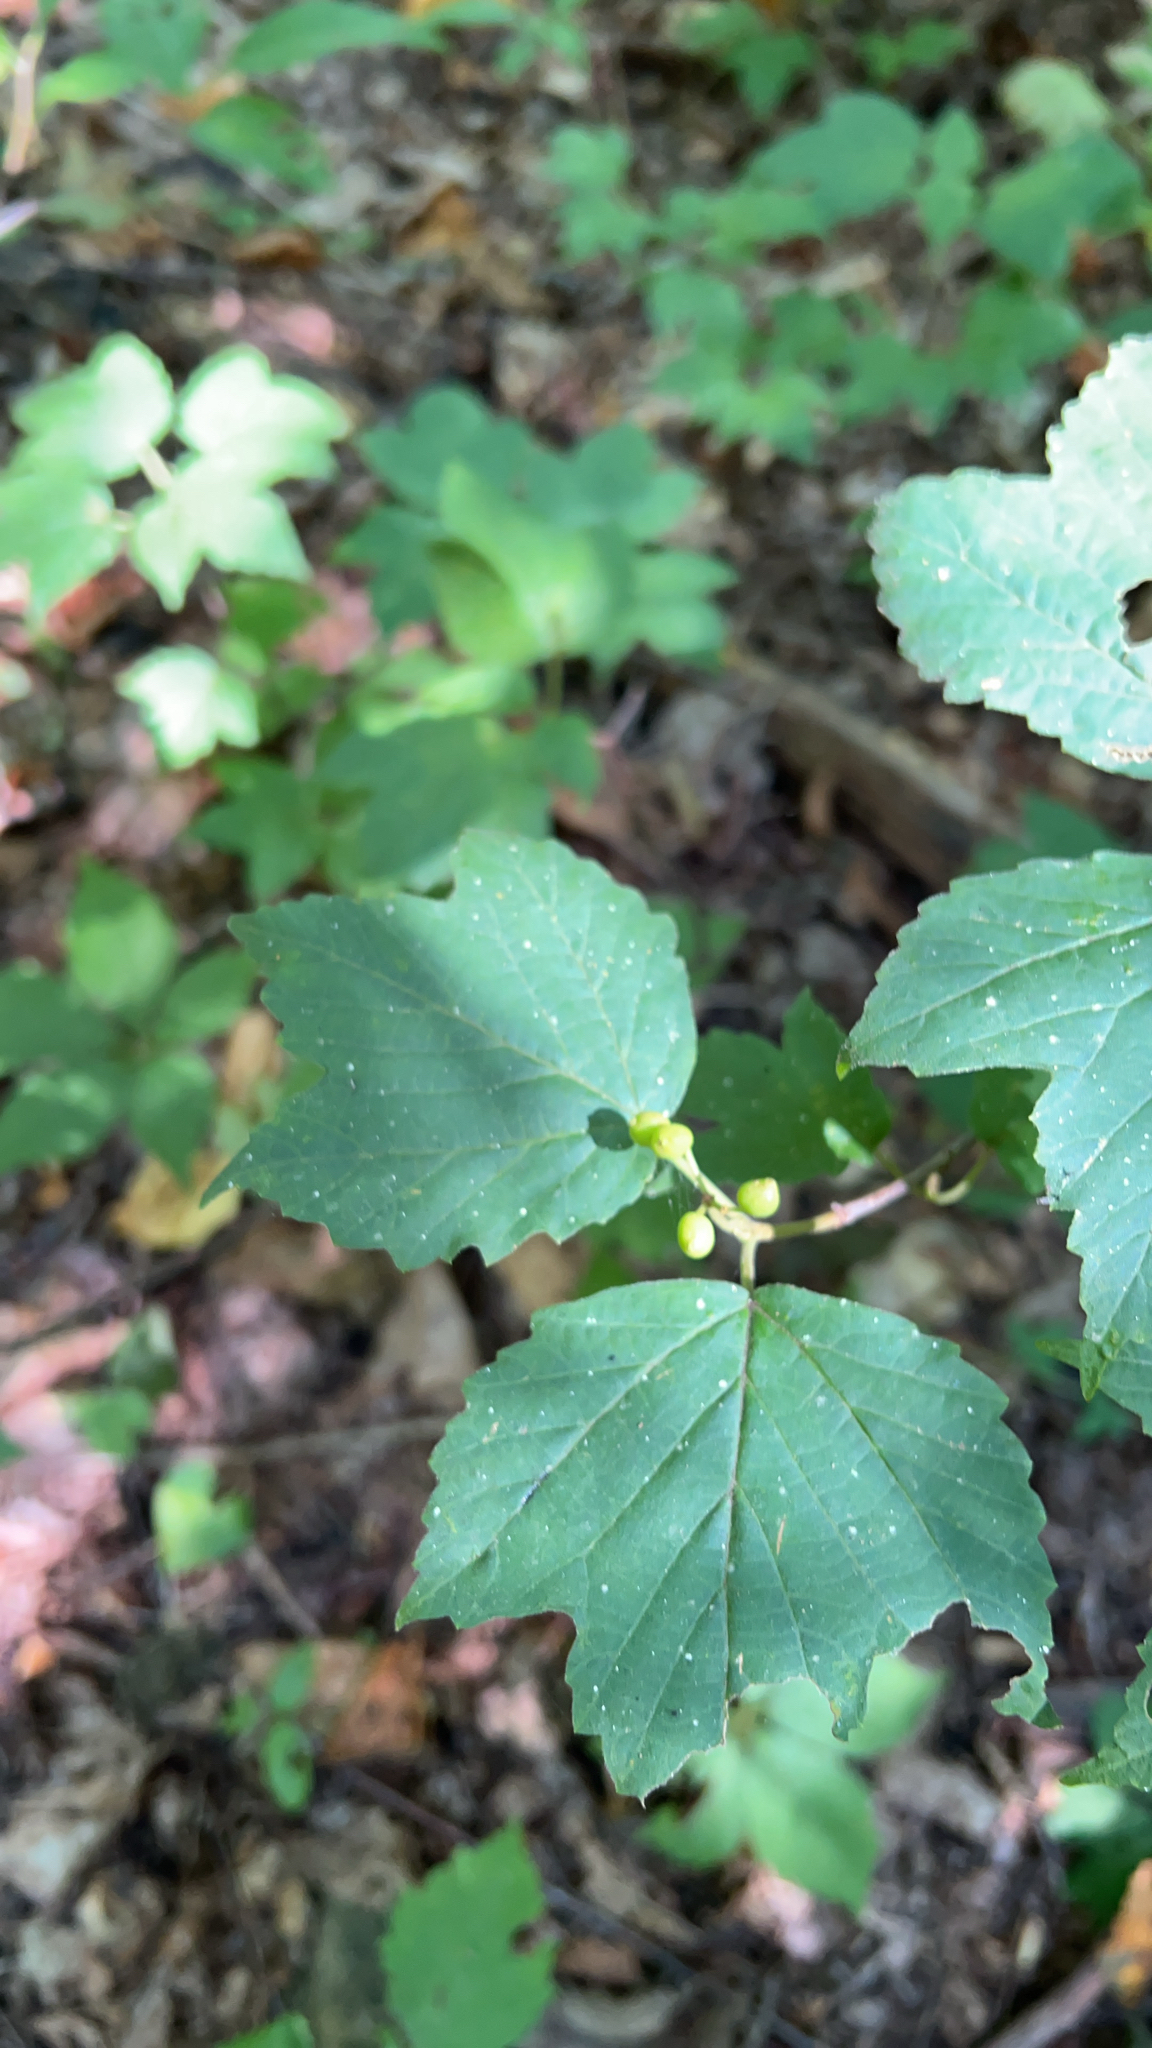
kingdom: Plantae
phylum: Tracheophyta
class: Magnoliopsida
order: Dipsacales
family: Viburnaceae
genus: Viburnum
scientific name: Viburnum acerifolium
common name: Dockmackie
